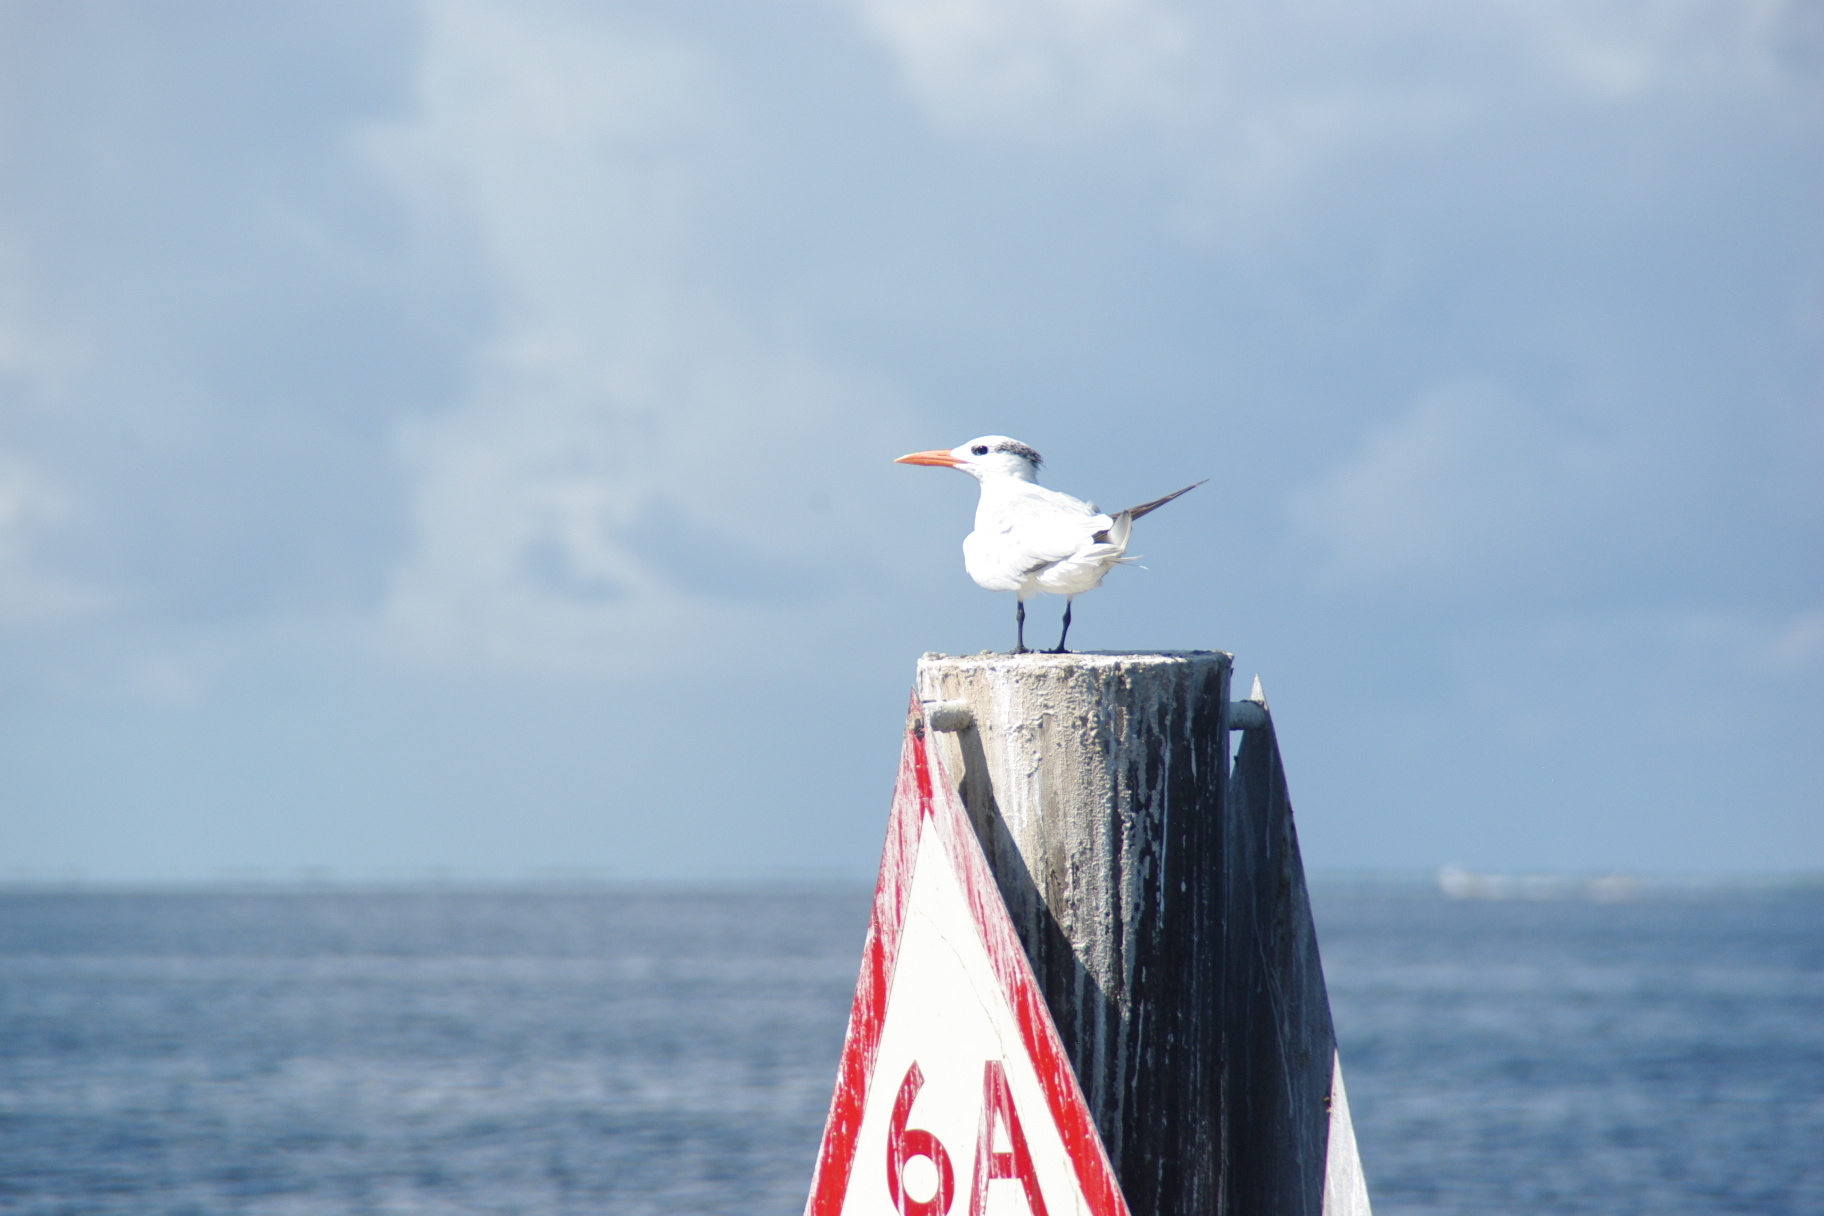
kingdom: Animalia
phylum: Chordata
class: Aves
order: Charadriiformes
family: Laridae
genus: Thalasseus
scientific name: Thalasseus maximus
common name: Royal tern
